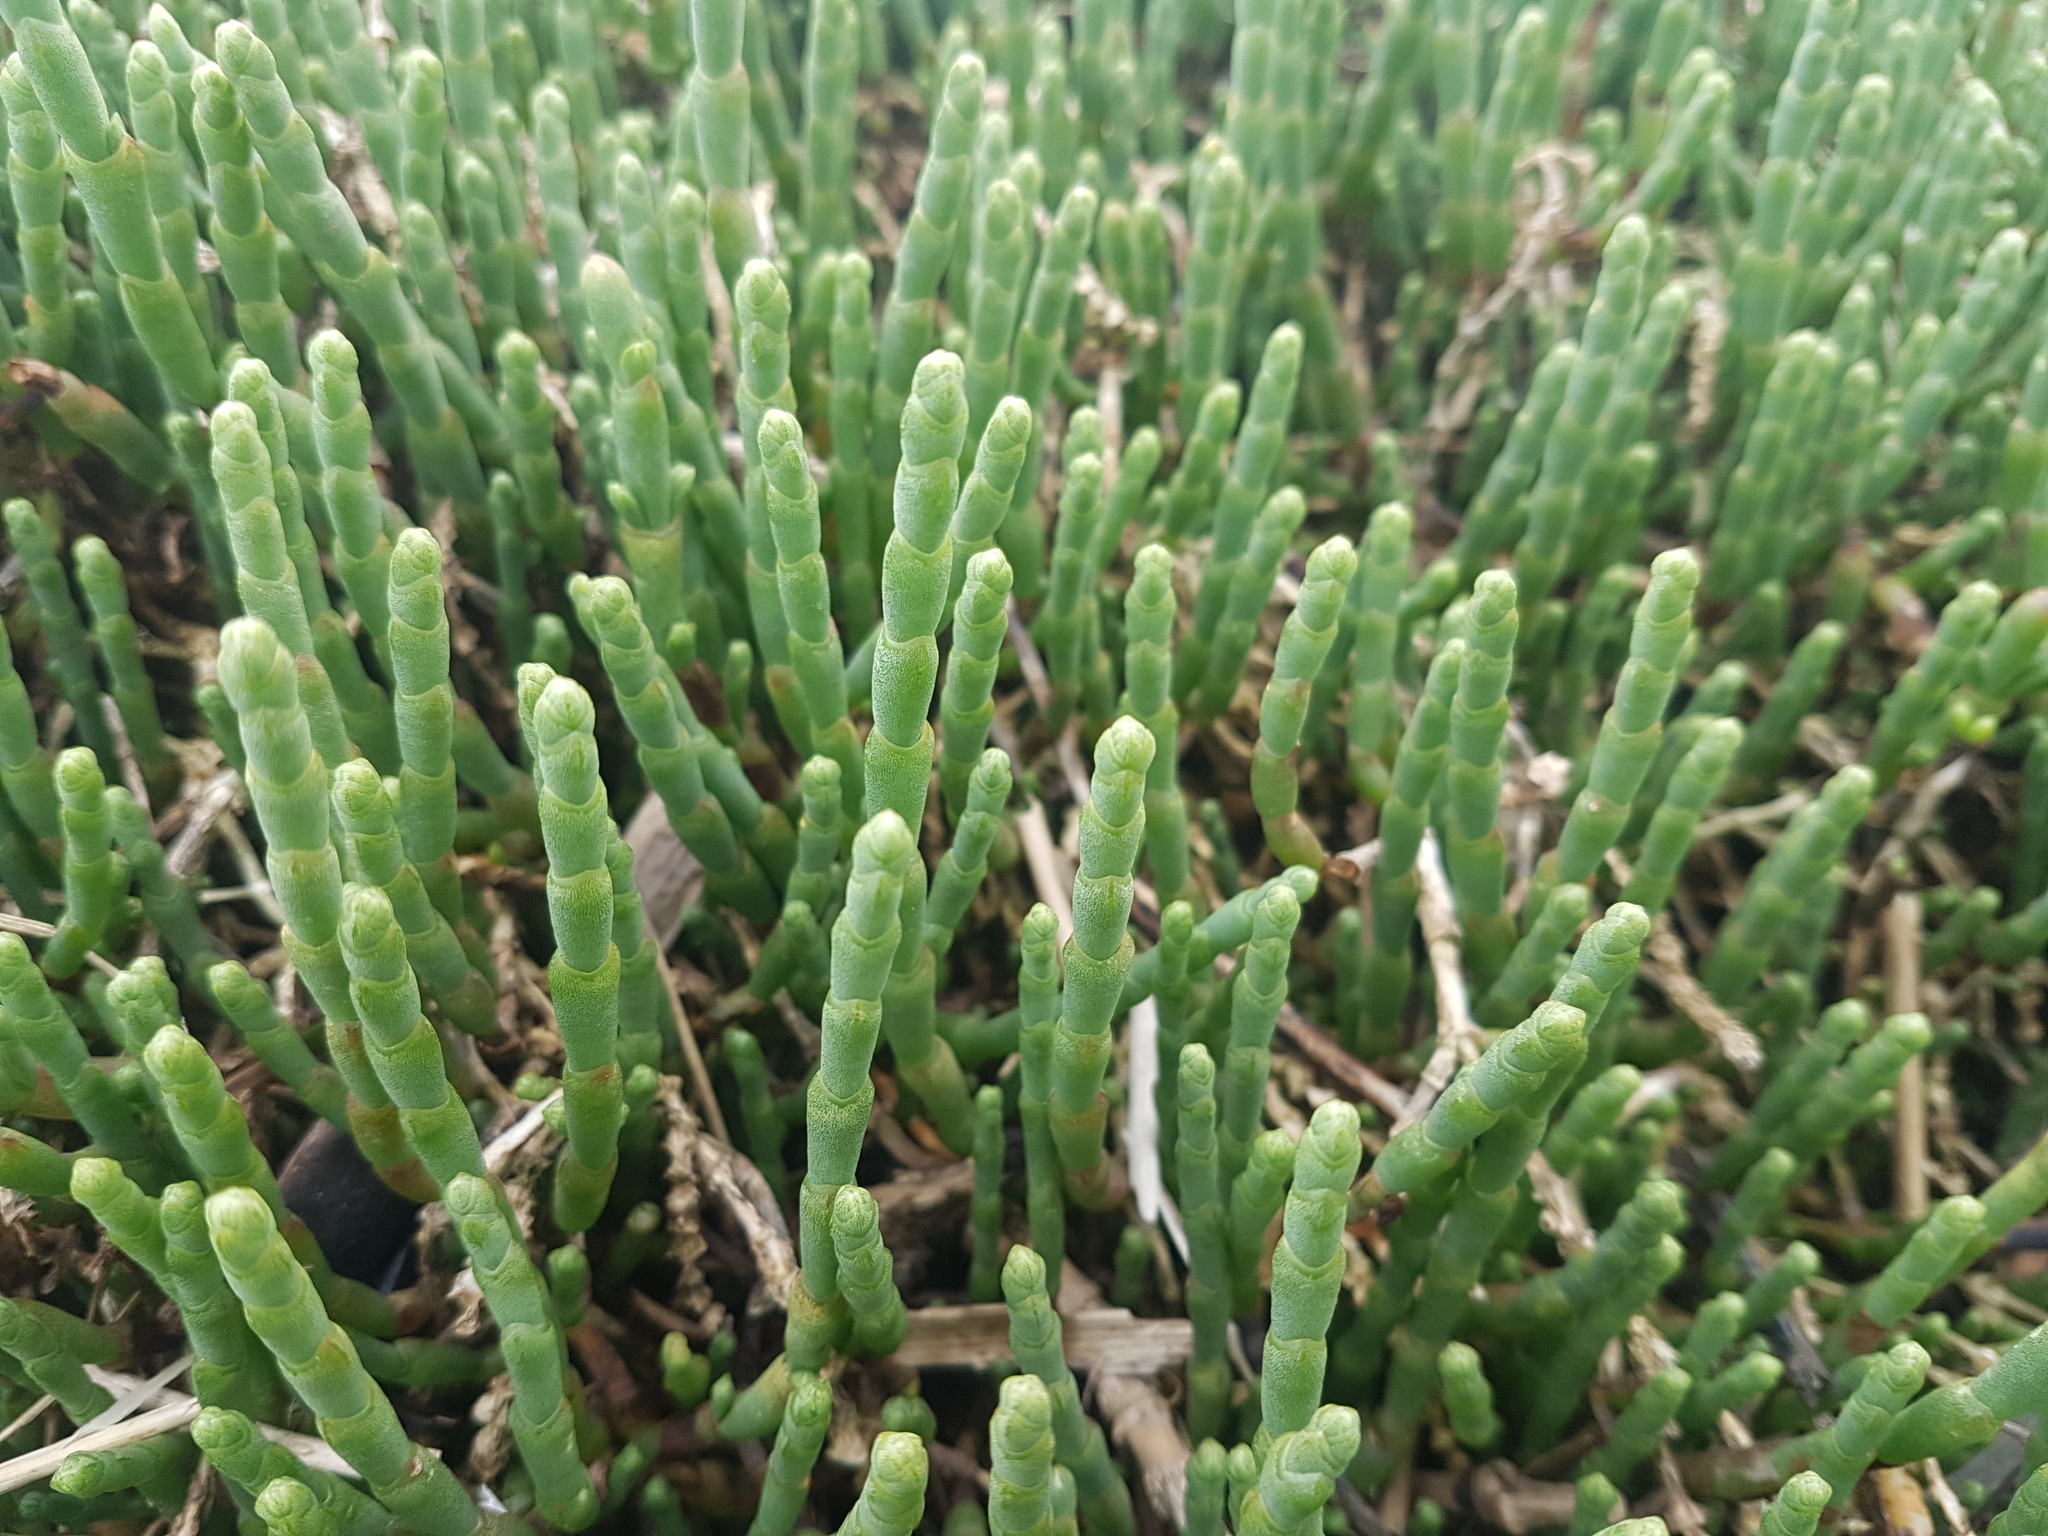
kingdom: Plantae
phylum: Tracheophyta
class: Magnoliopsida
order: Caryophyllales
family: Amaranthaceae
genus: Salicornia
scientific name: Salicornia quinqueflora
